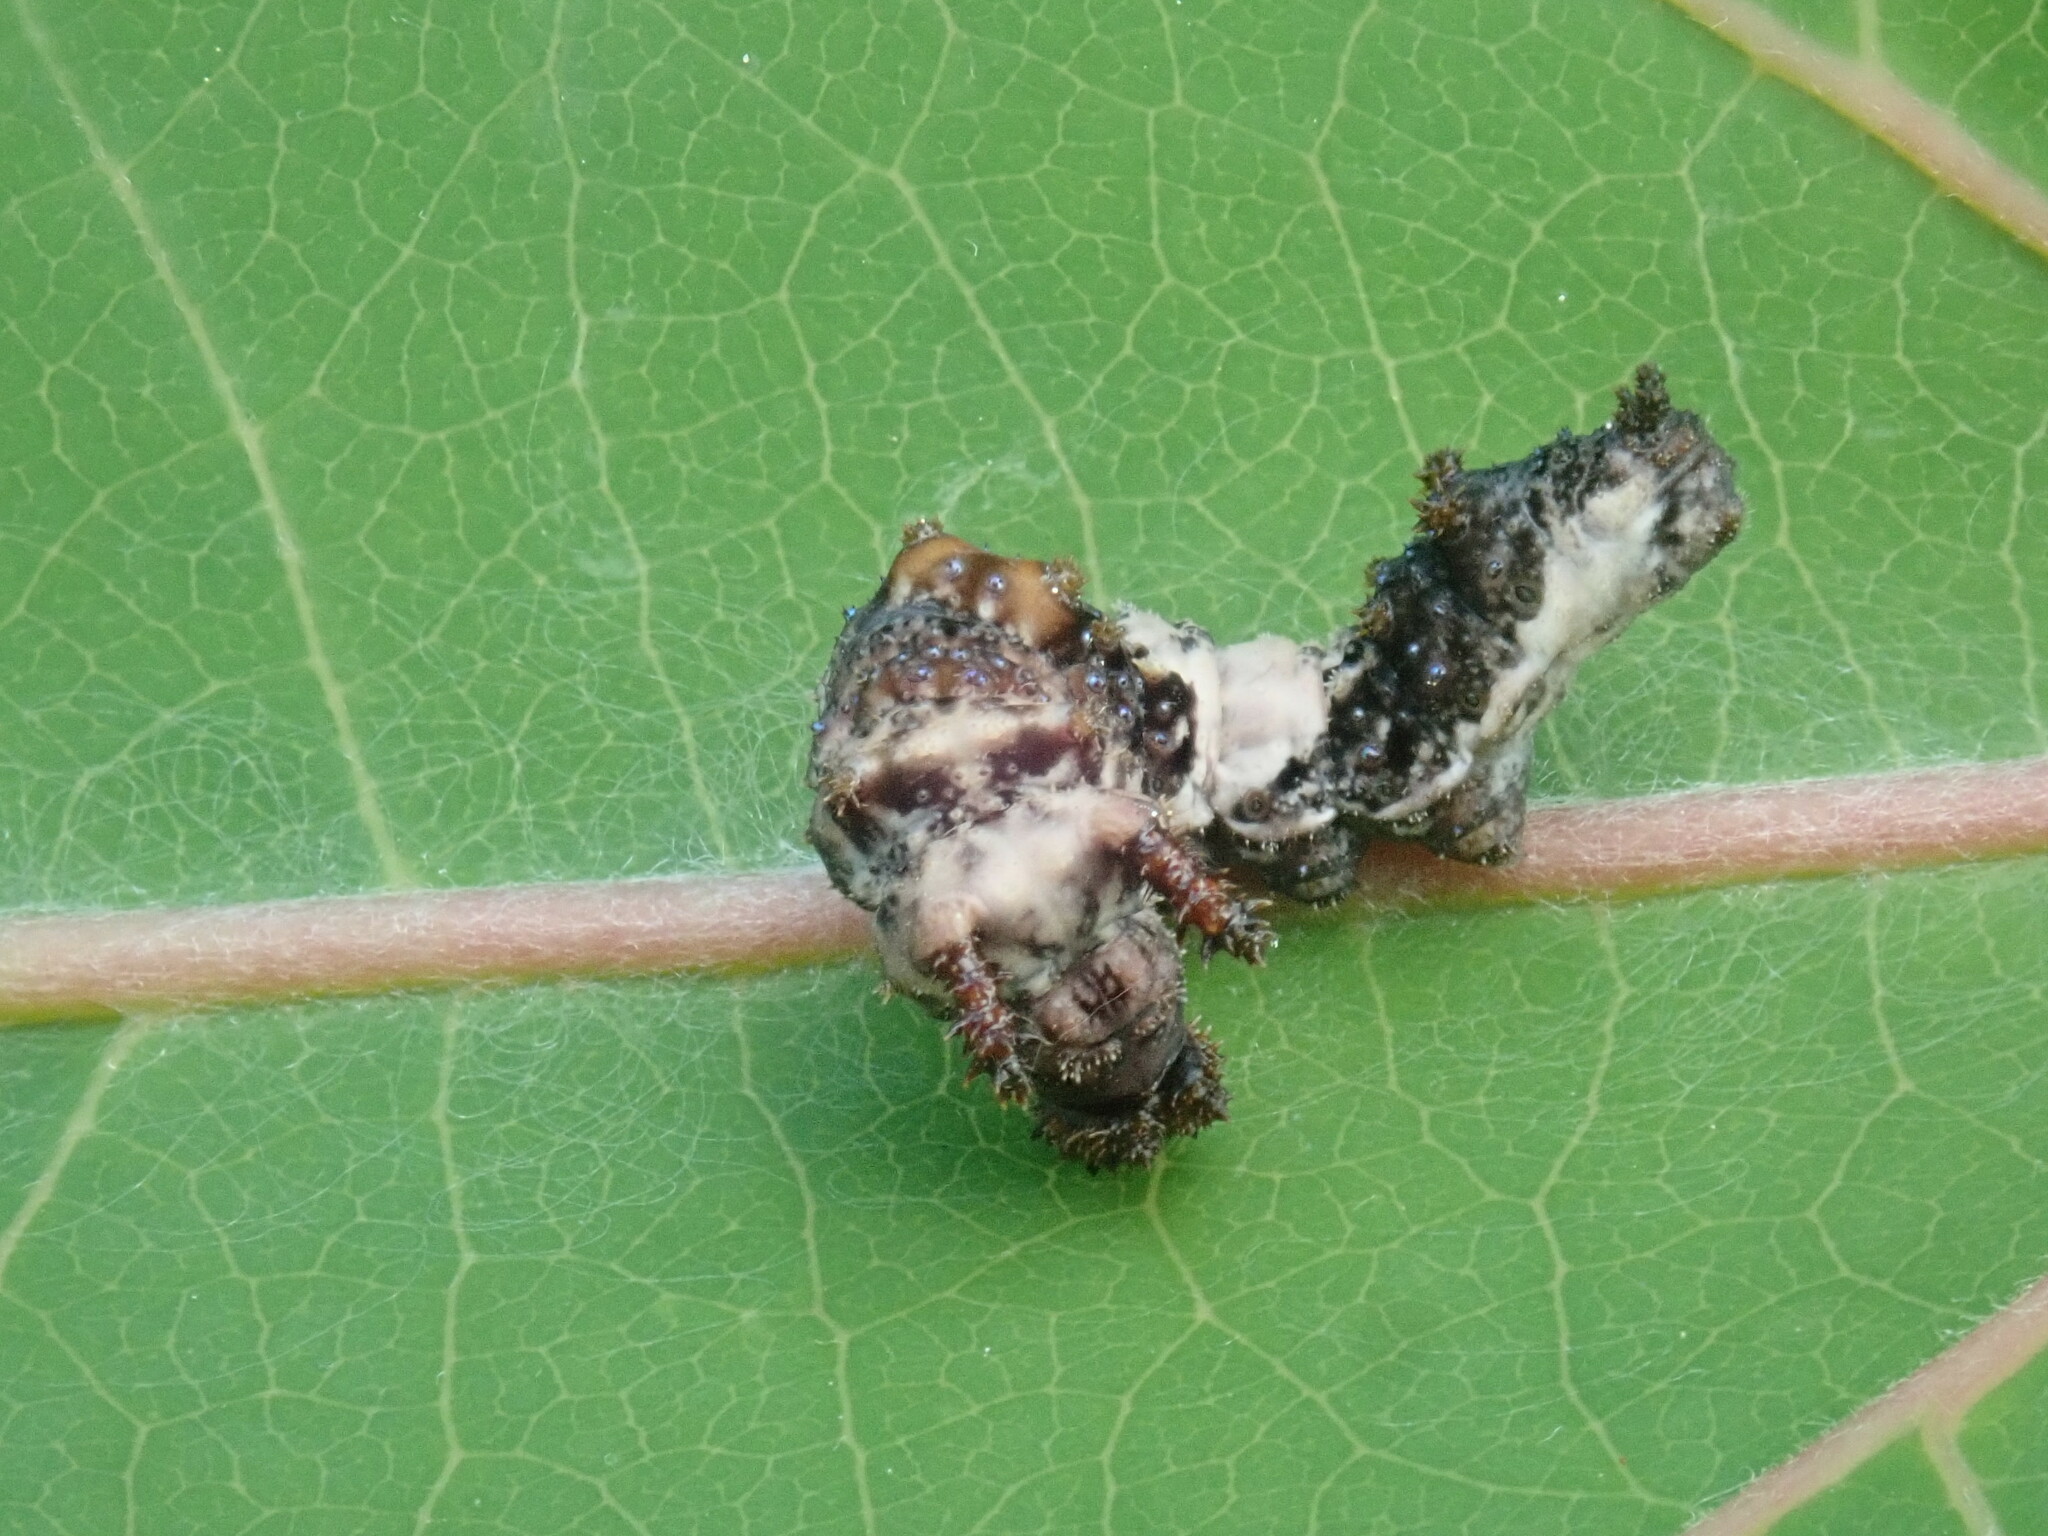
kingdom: Animalia
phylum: Arthropoda
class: Insecta
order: Lepidoptera
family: Nymphalidae
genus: Limenitis
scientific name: Limenitis archippus
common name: Viceroy
